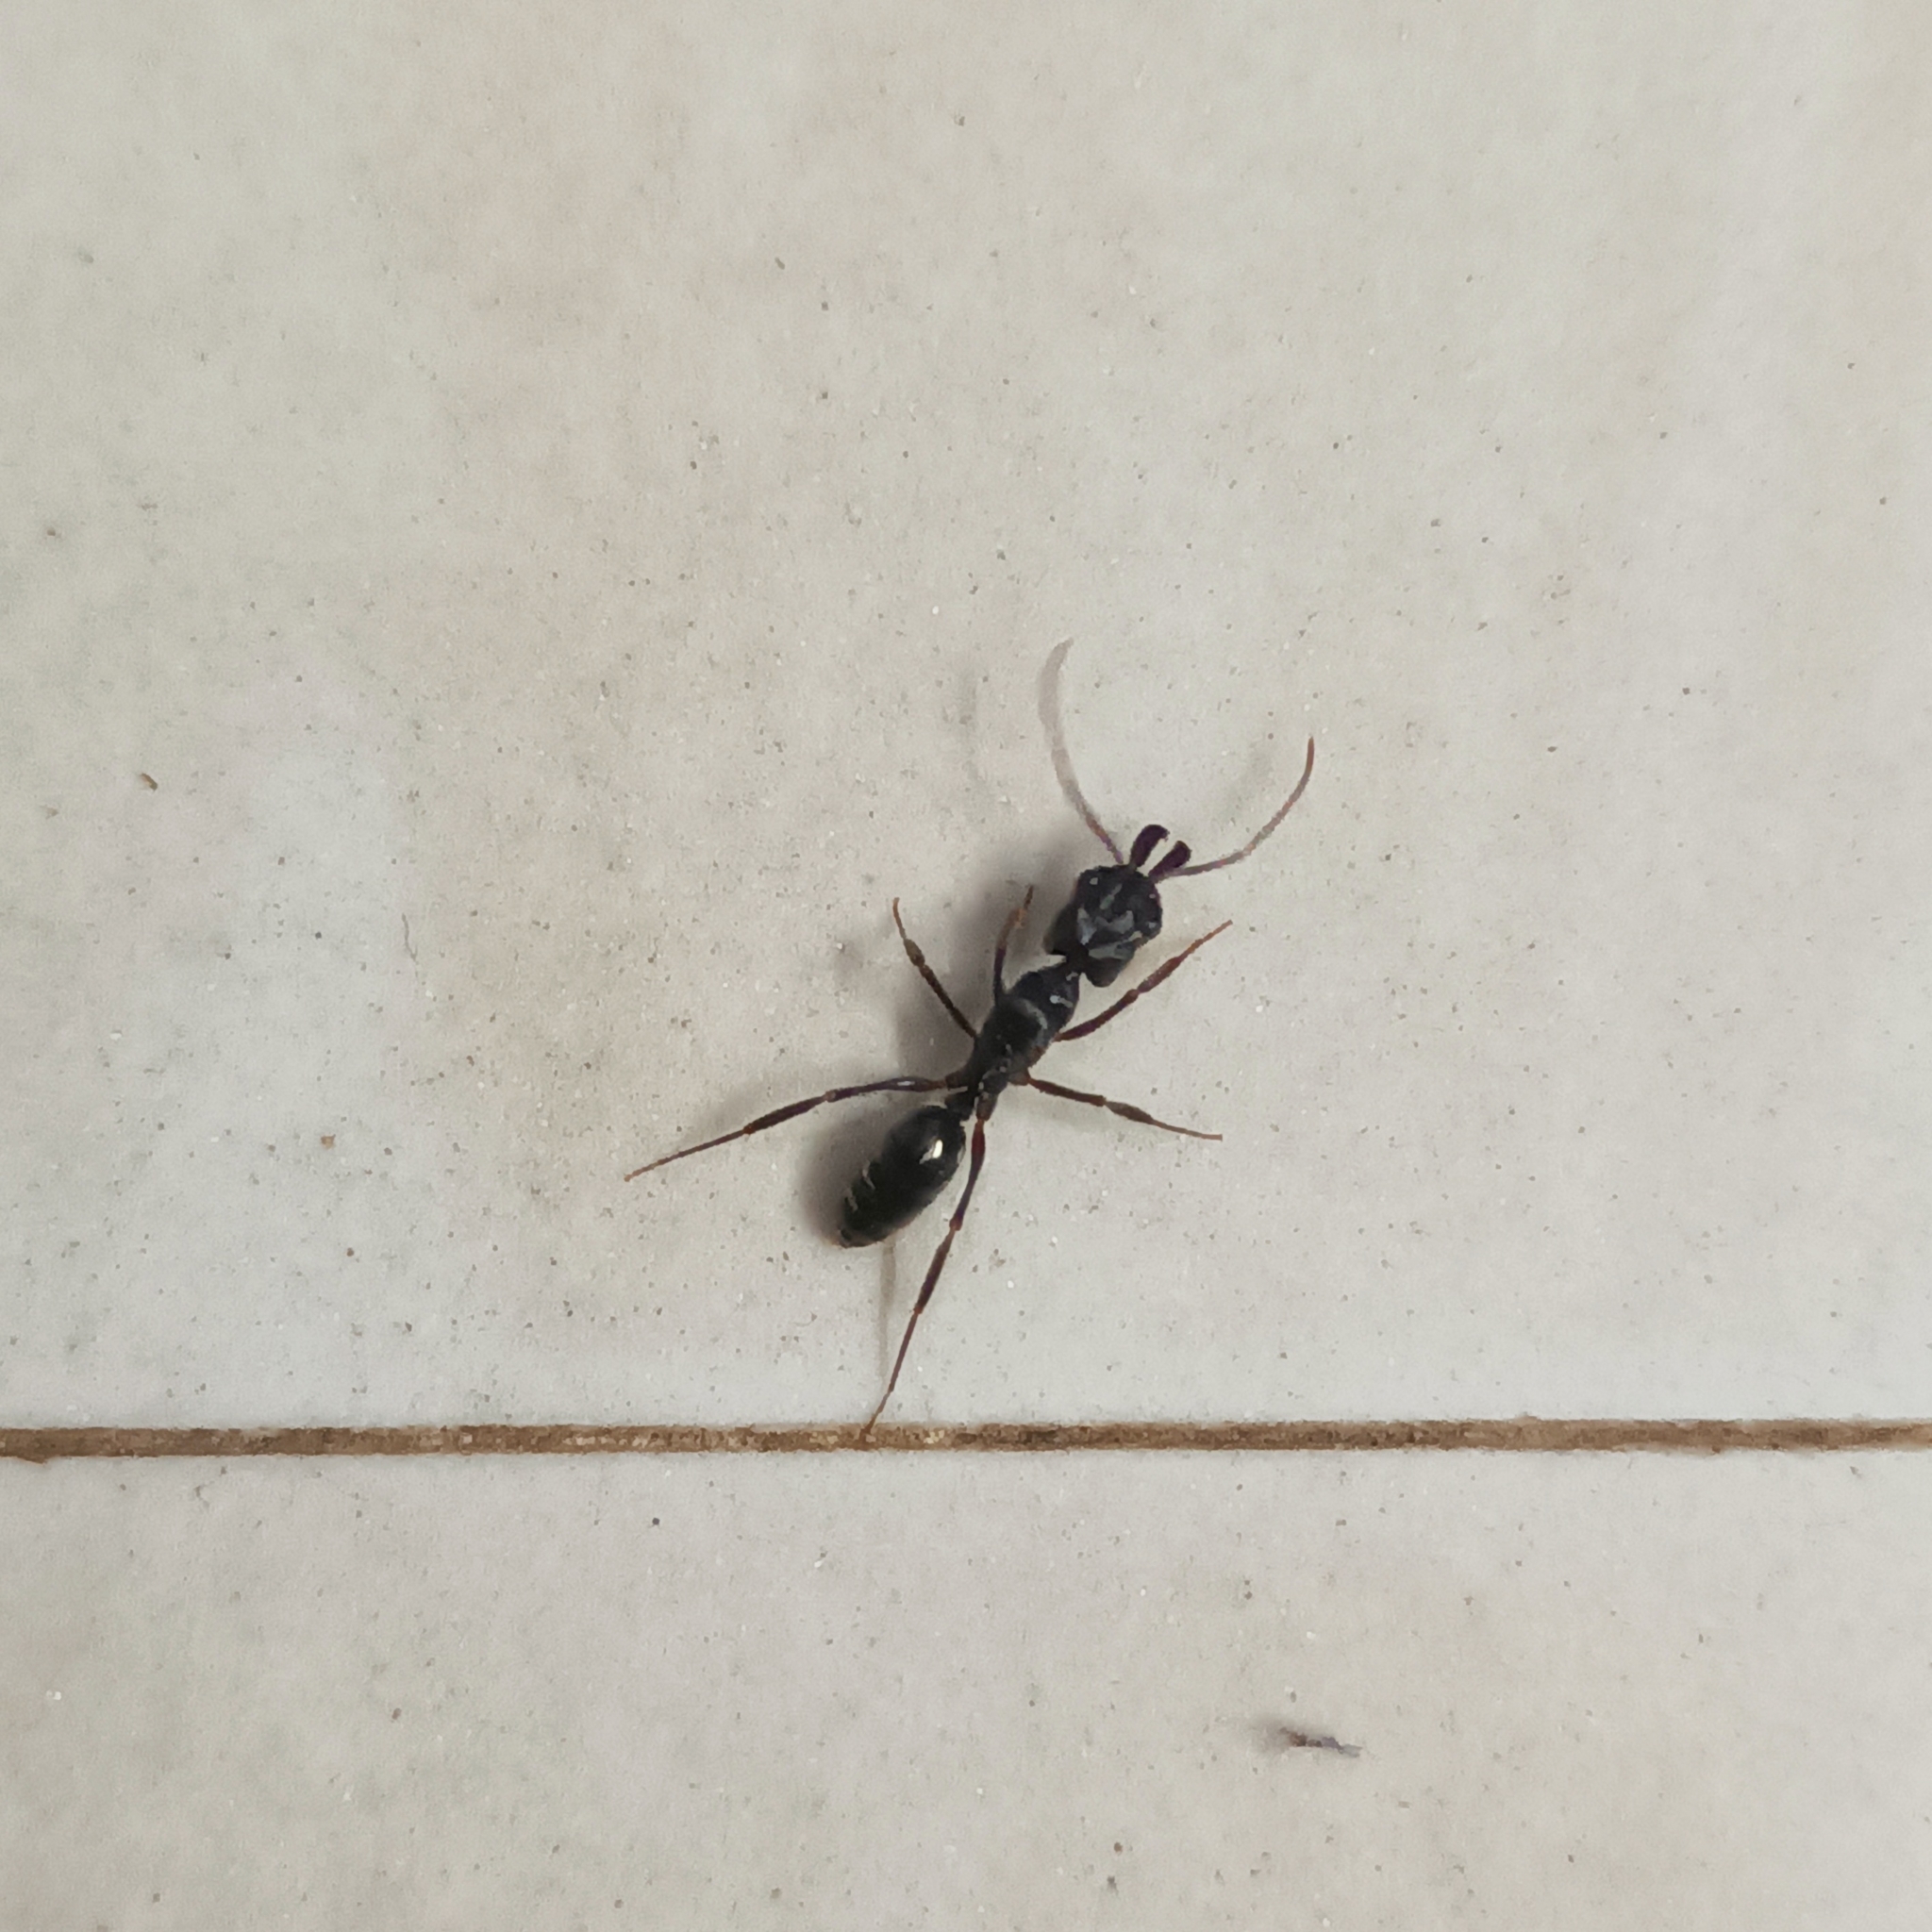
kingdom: Animalia
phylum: Arthropoda
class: Insecta
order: Hymenoptera
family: Formicidae
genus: Odontomachus
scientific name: Odontomachus simillimus
